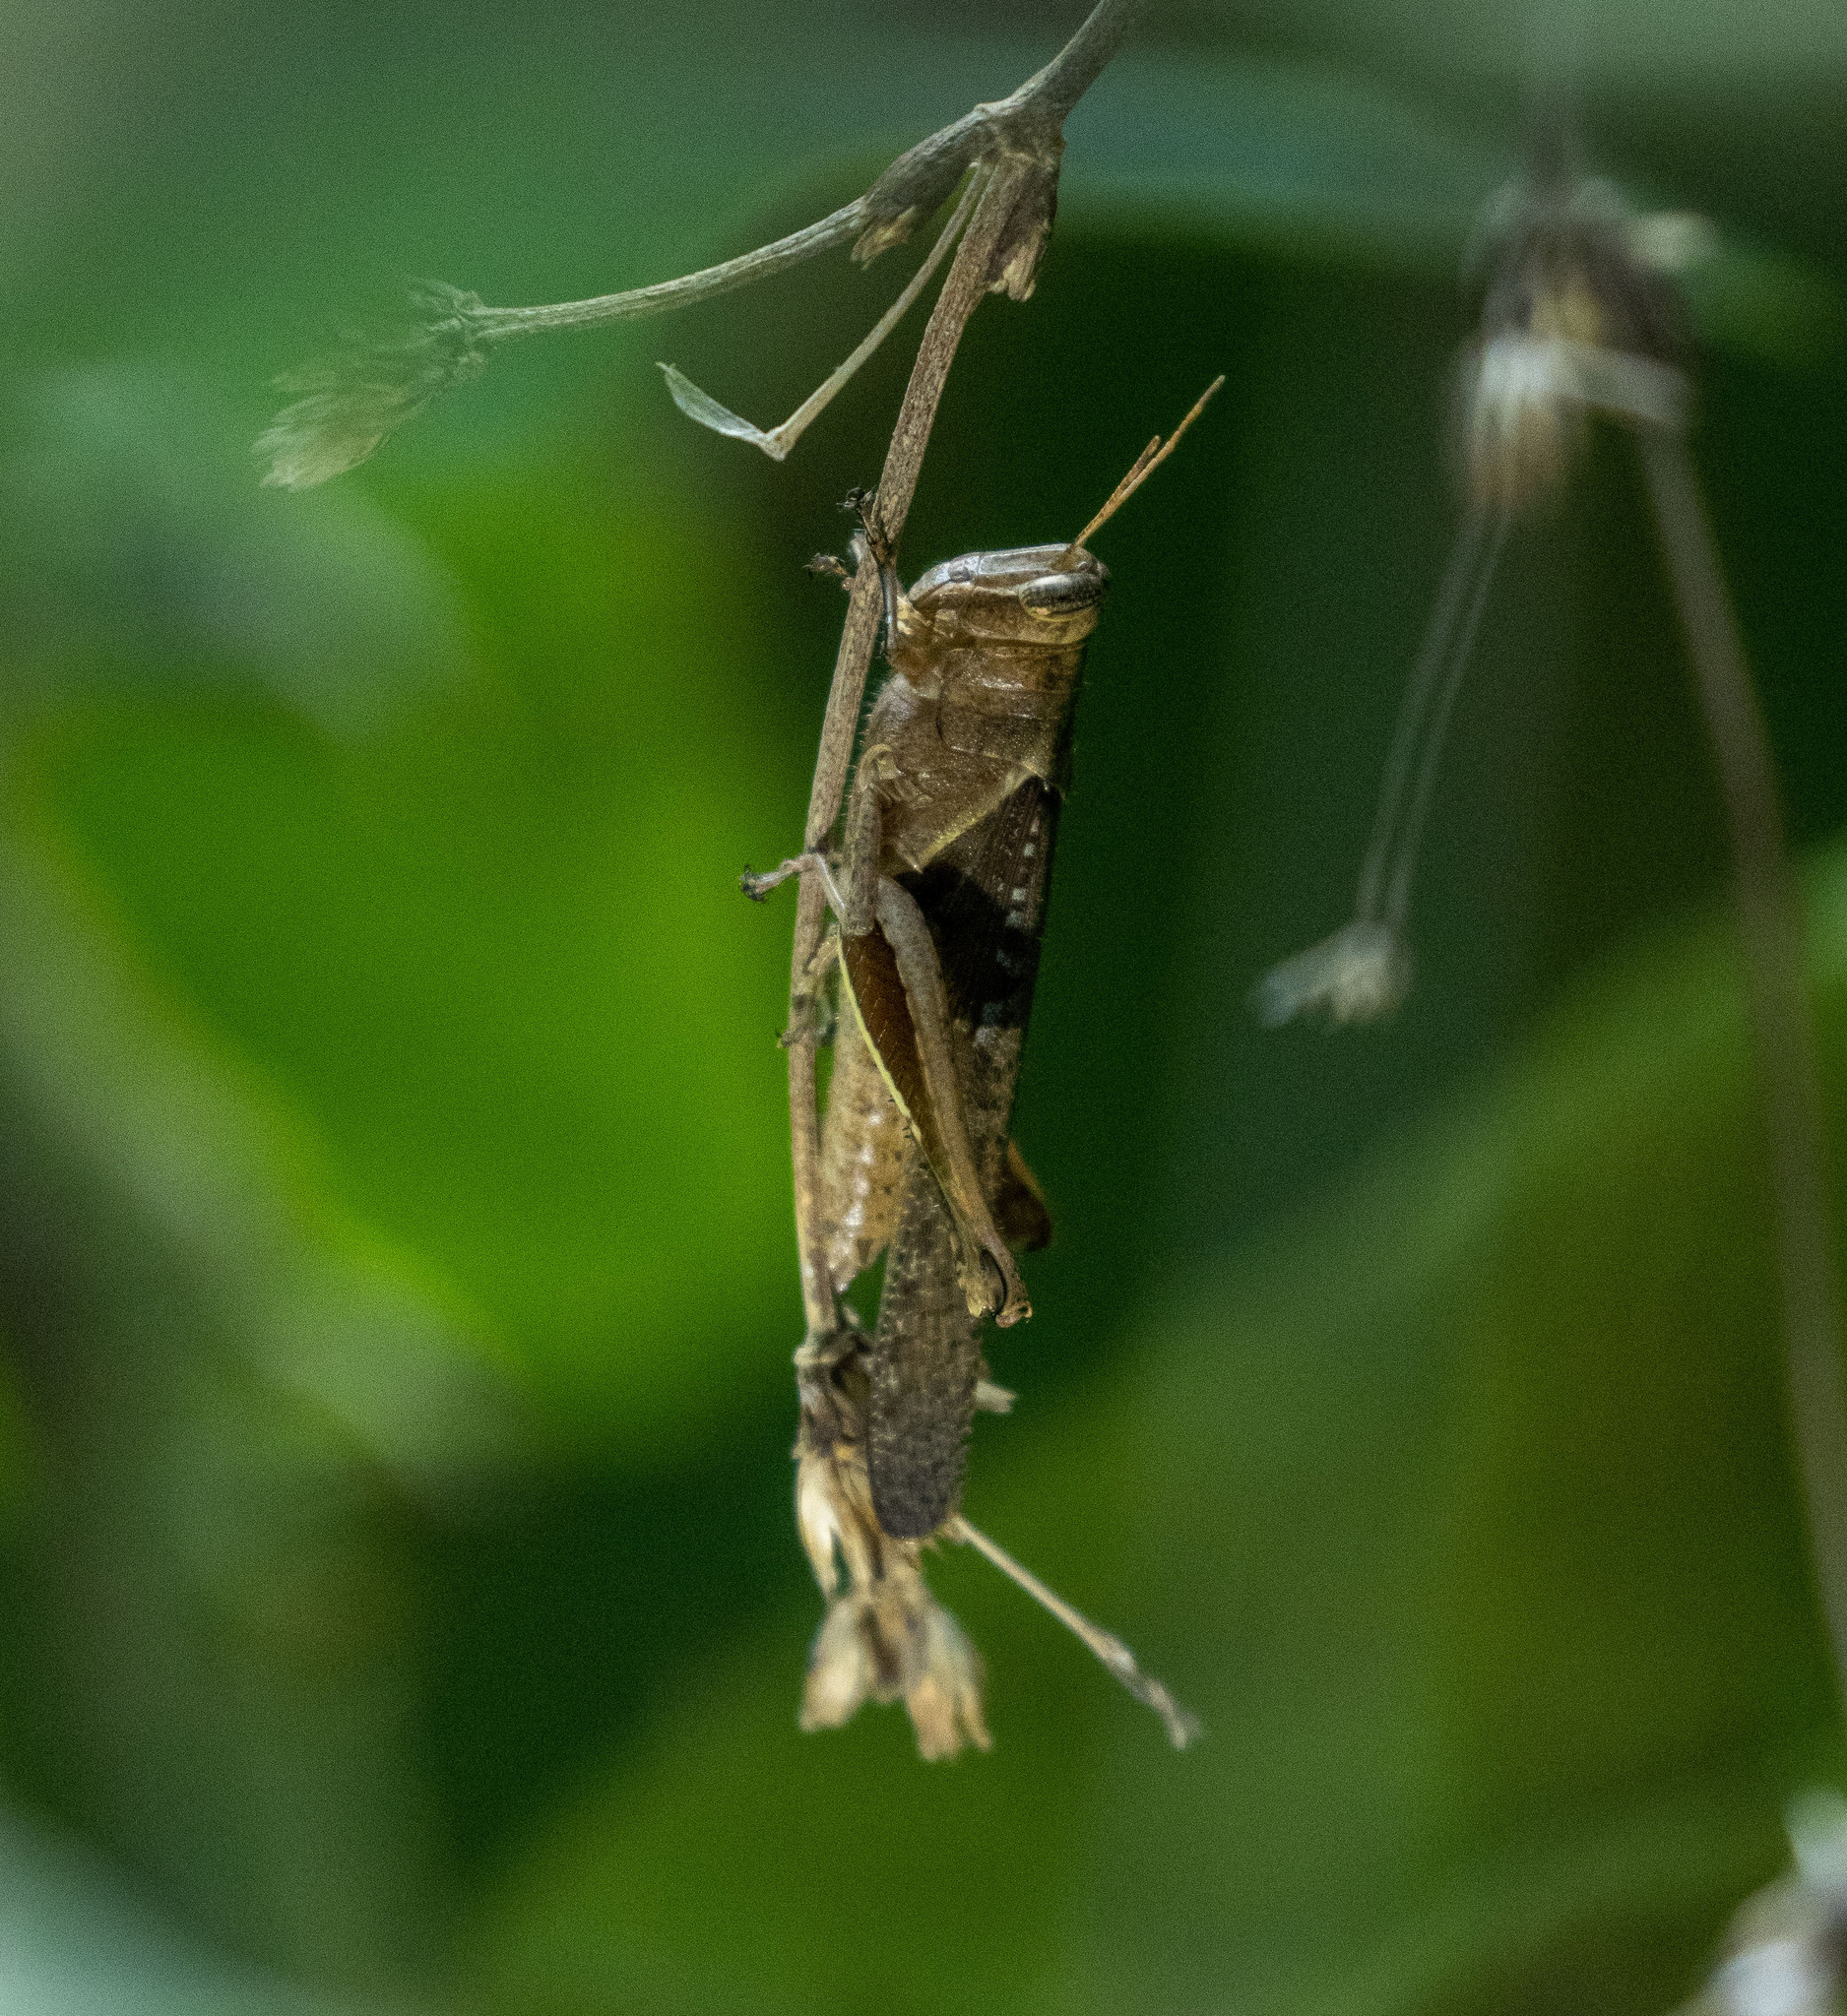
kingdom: Animalia
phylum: Arthropoda
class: Insecta
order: Orthoptera
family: Acrididae
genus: Abracris
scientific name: Abracris flavolineata
